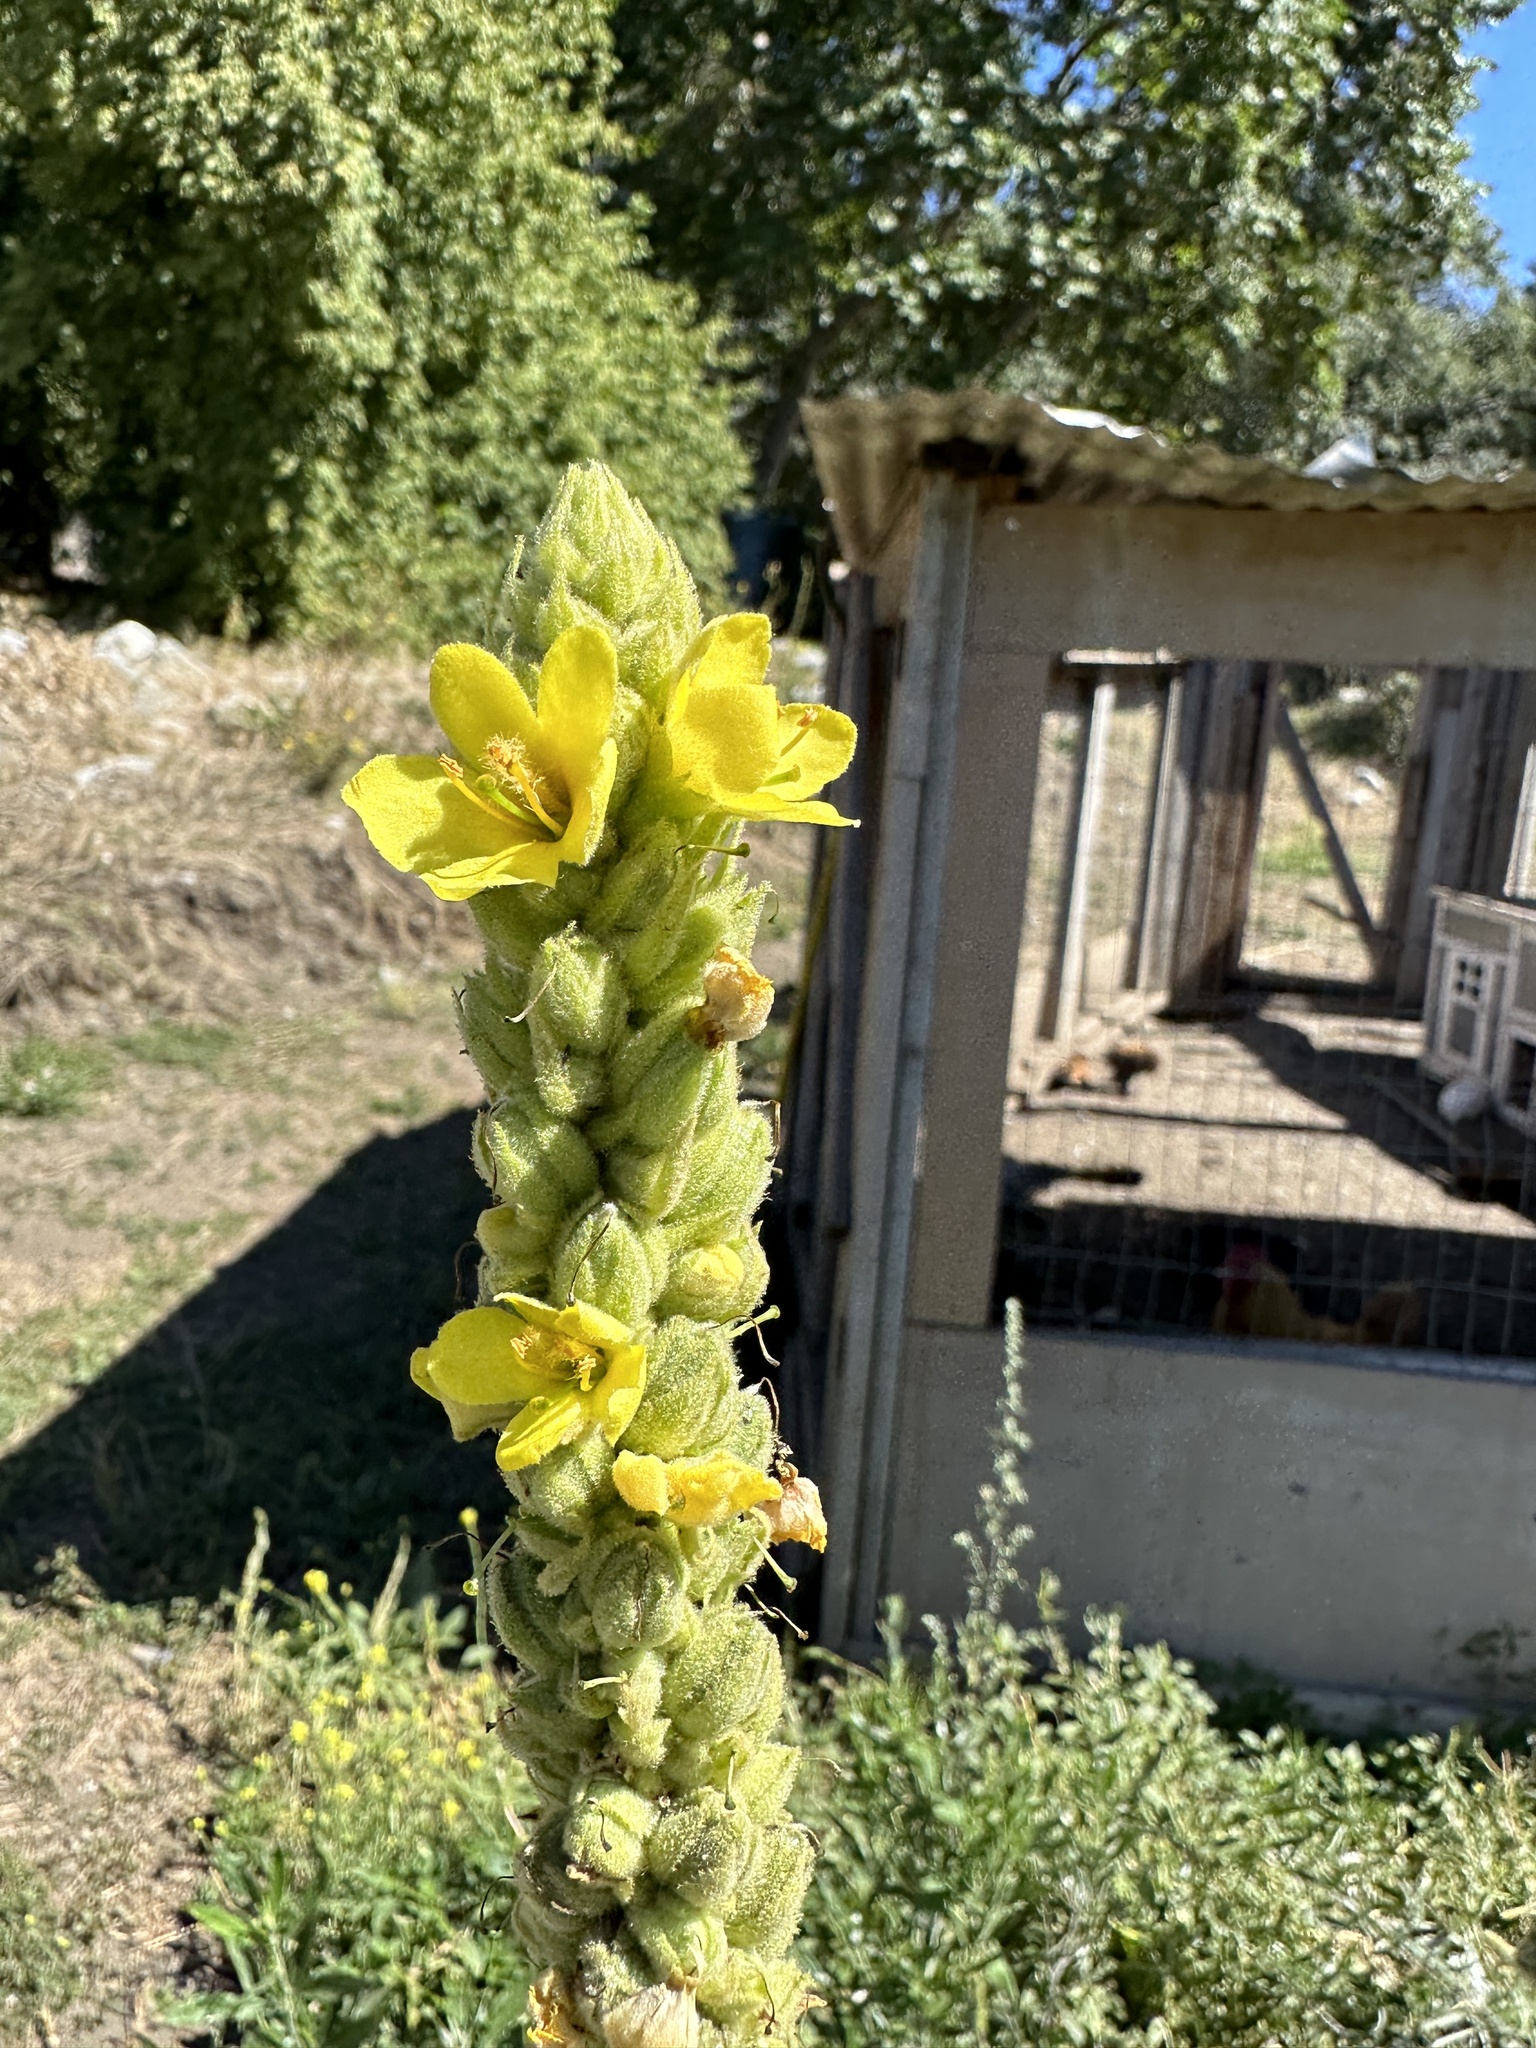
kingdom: Plantae
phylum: Tracheophyta
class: Magnoliopsida
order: Lamiales
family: Scrophulariaceae
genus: Verbascum
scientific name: Verbascum thapsus
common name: Common mullein
